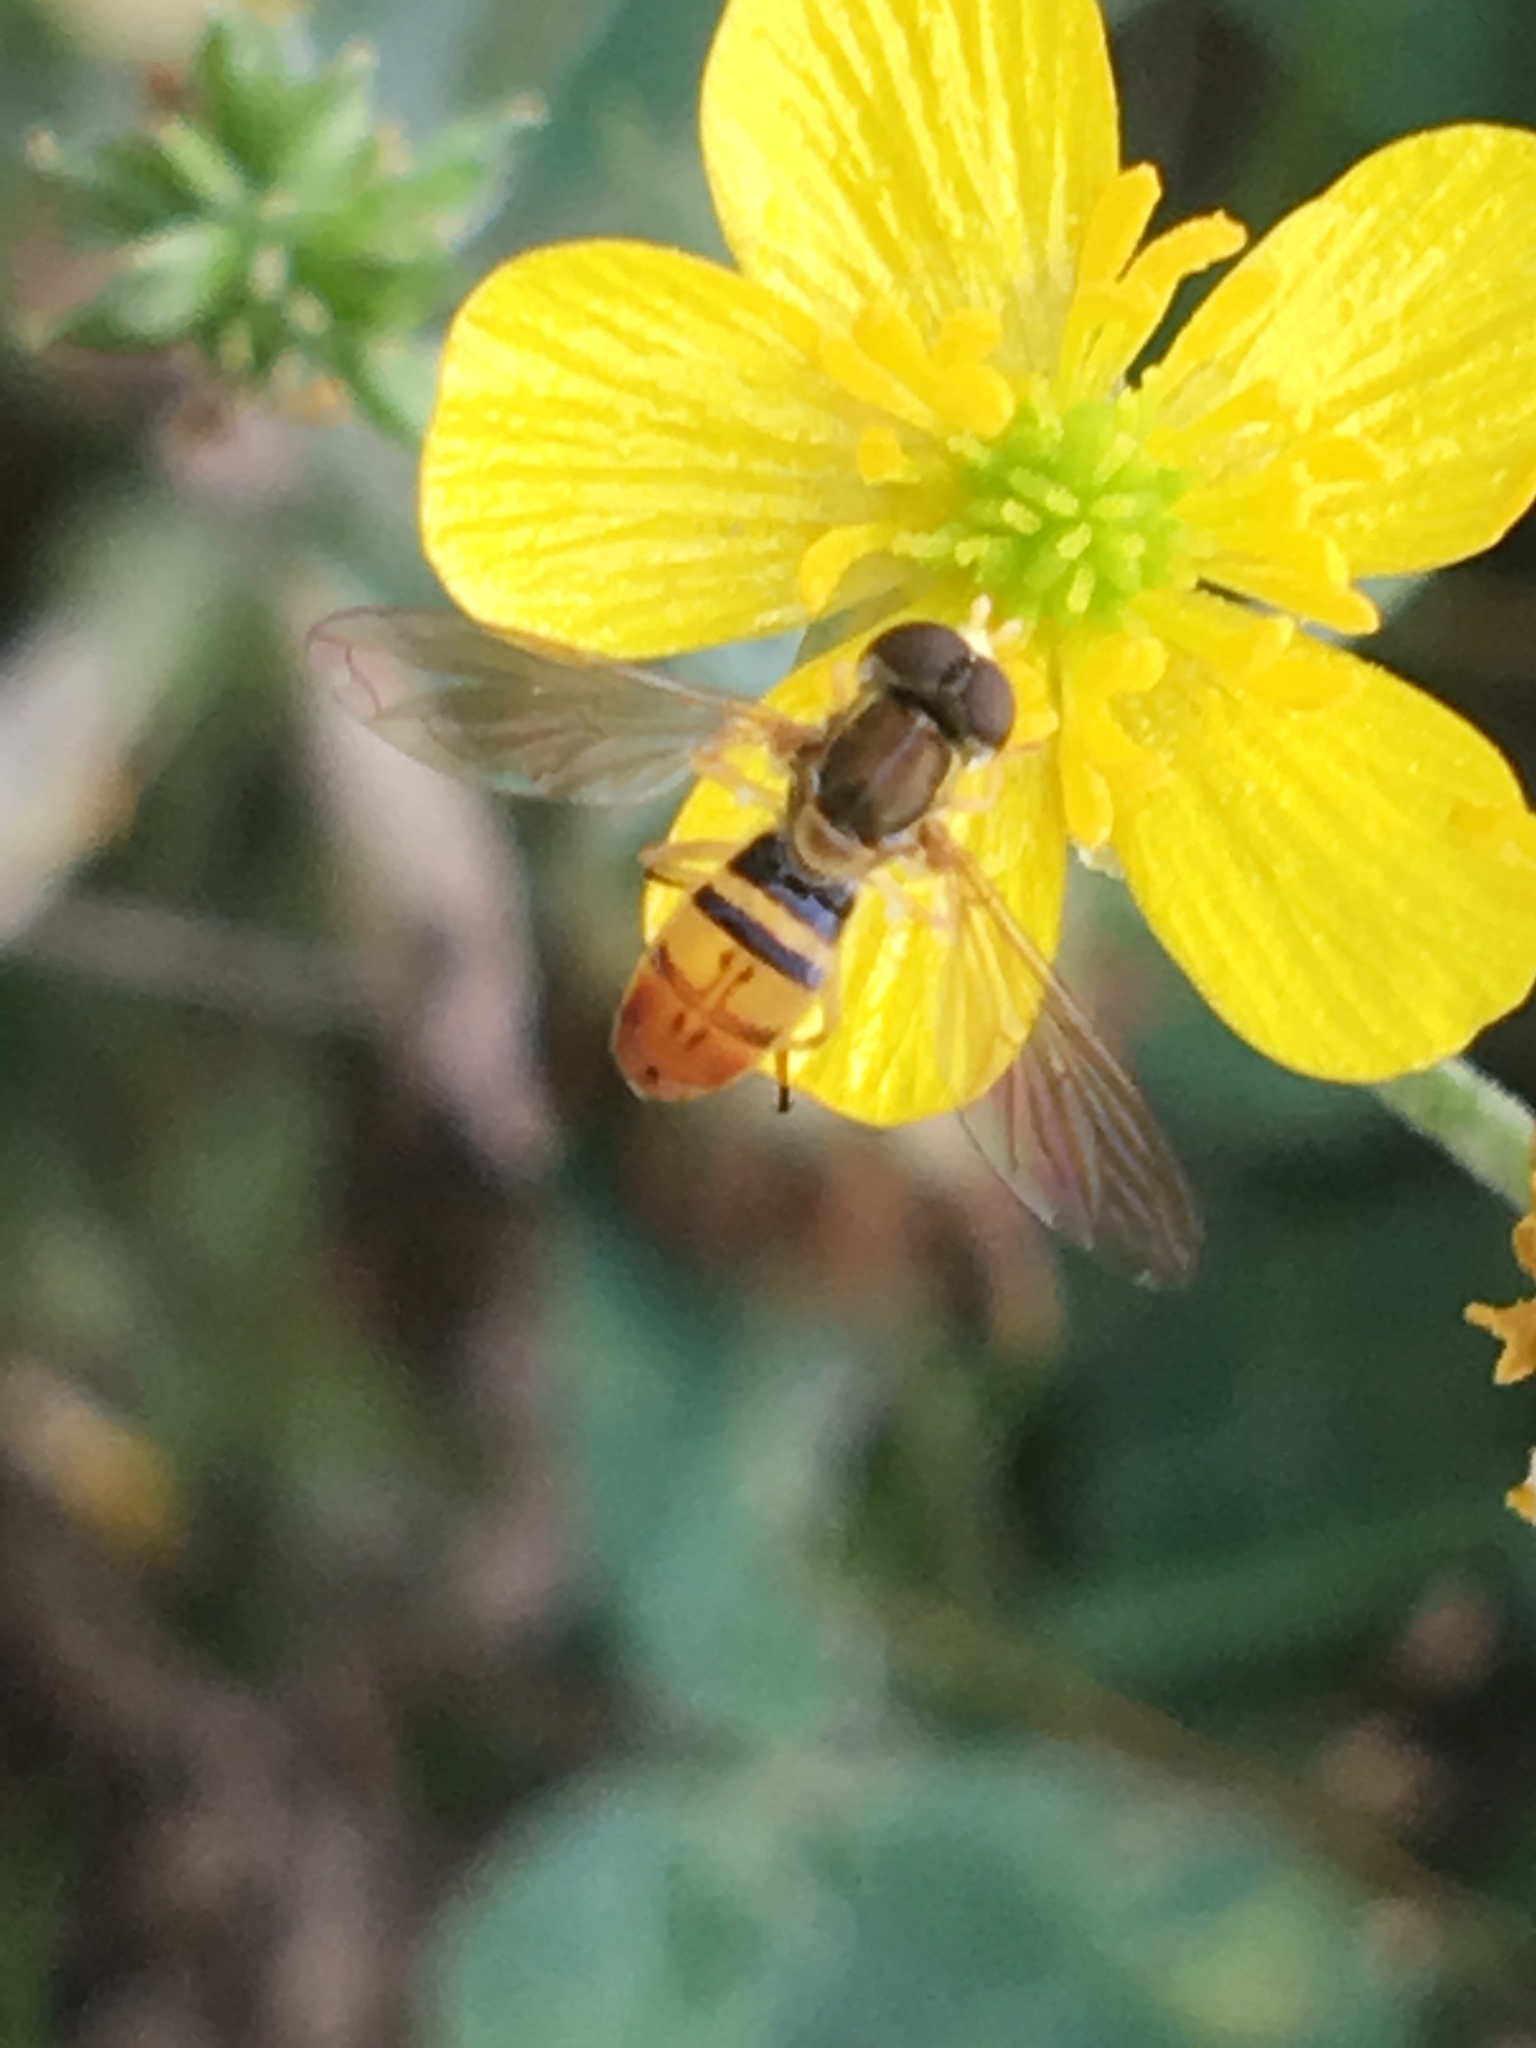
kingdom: Animalia
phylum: Arthropoda
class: Insecta
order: Diptera
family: Syrphidae
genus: Toxomerus
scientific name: Toxomerus marginatus
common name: Syrphid fly
